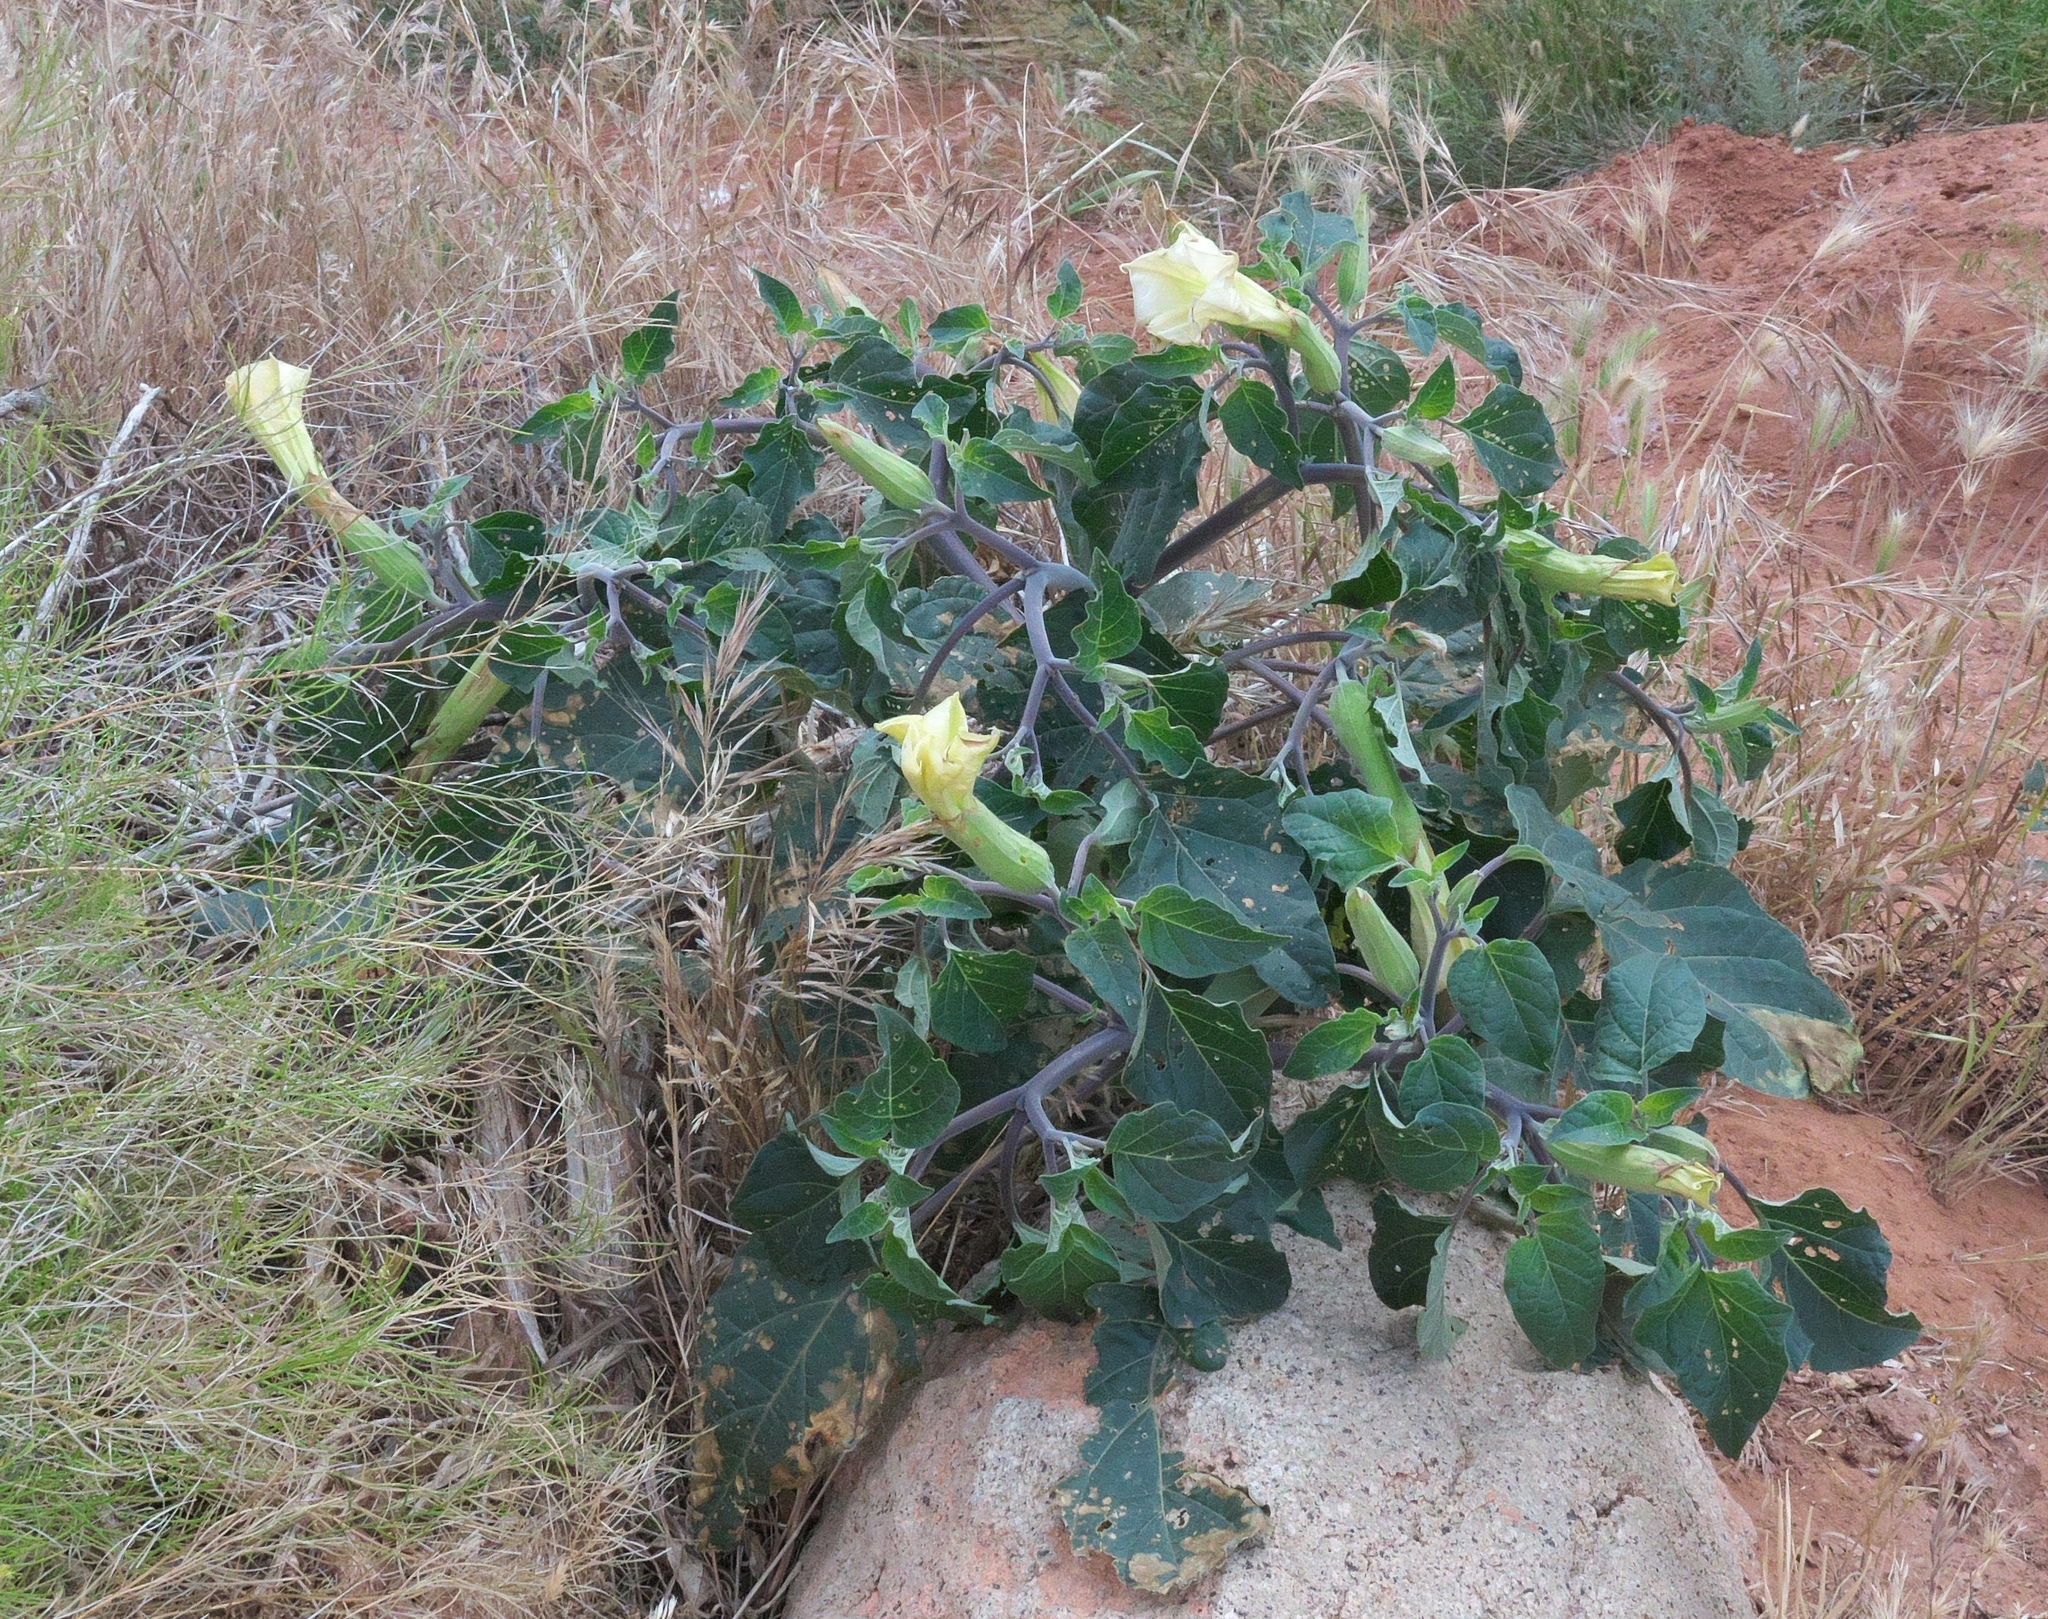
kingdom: Plantae
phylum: Tracheophyta
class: Magnoliopsida
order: Solanales
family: Solanaceae
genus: Datura
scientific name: Datura wrightii
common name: Sacred thorn-apple
